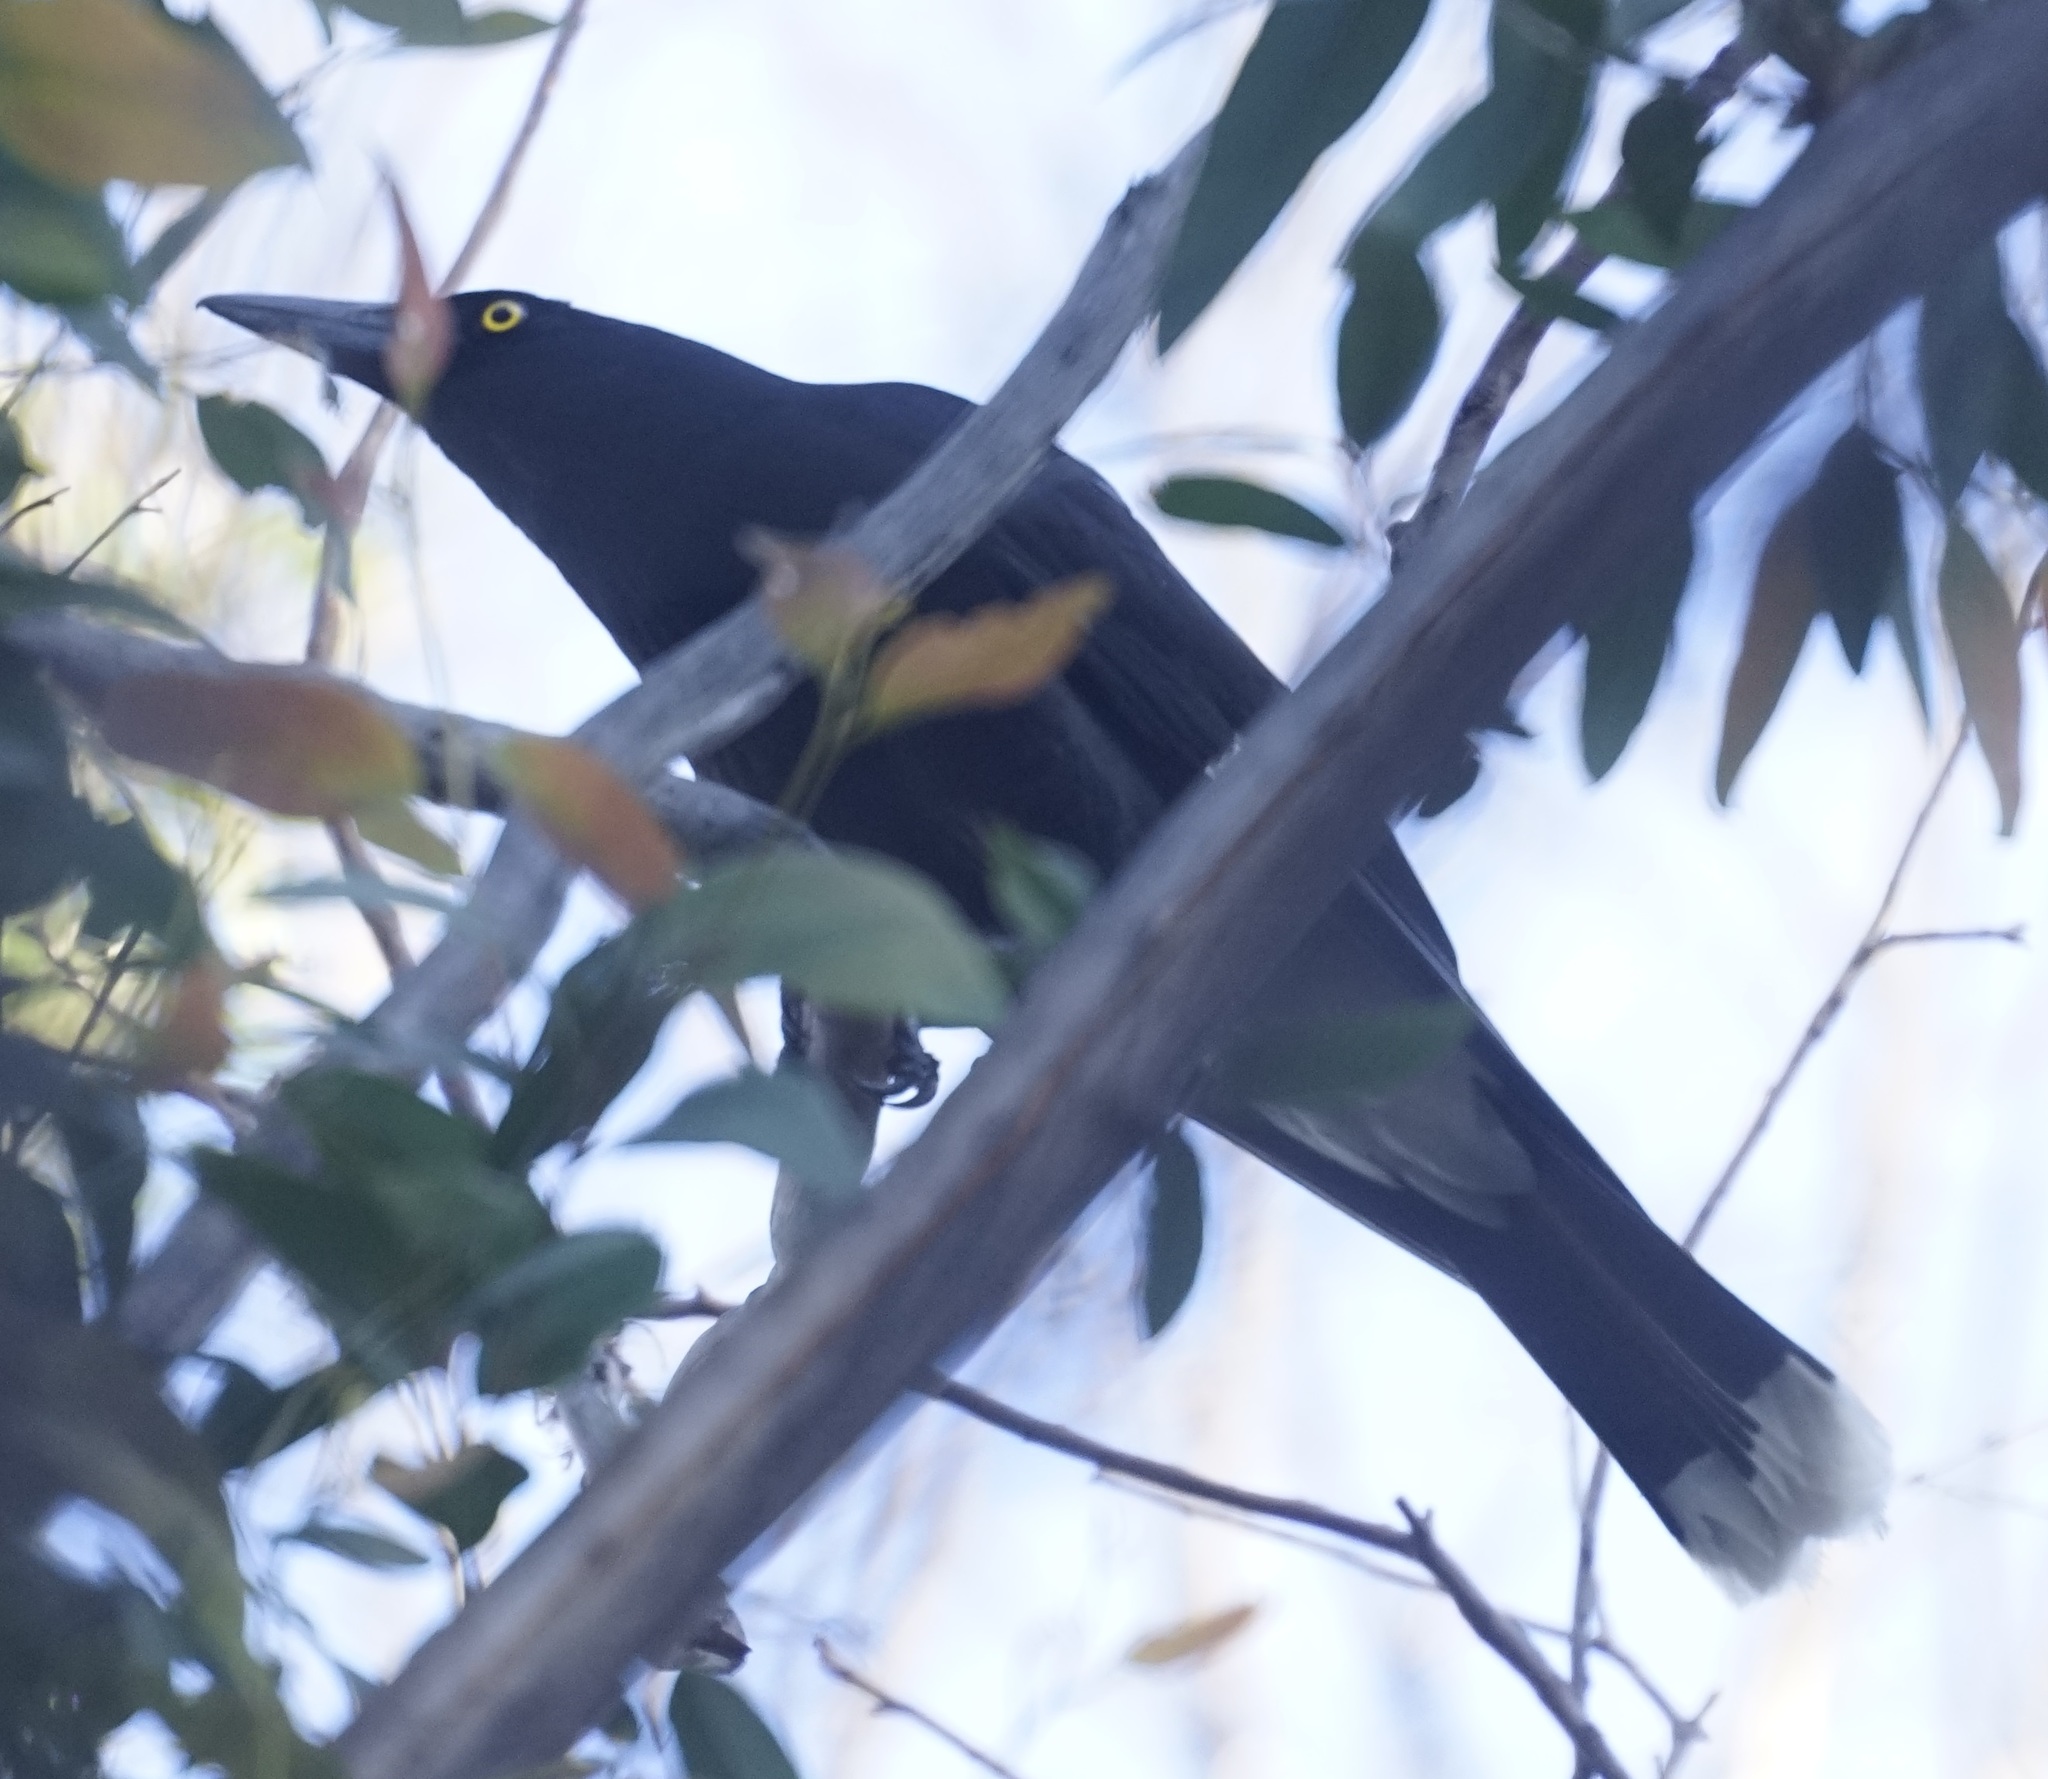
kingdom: Animalia
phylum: Chordata
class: Aves
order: Passeriformes
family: Cracticidae
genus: Strepera
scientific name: Strepera graculina
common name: Pied currawong
